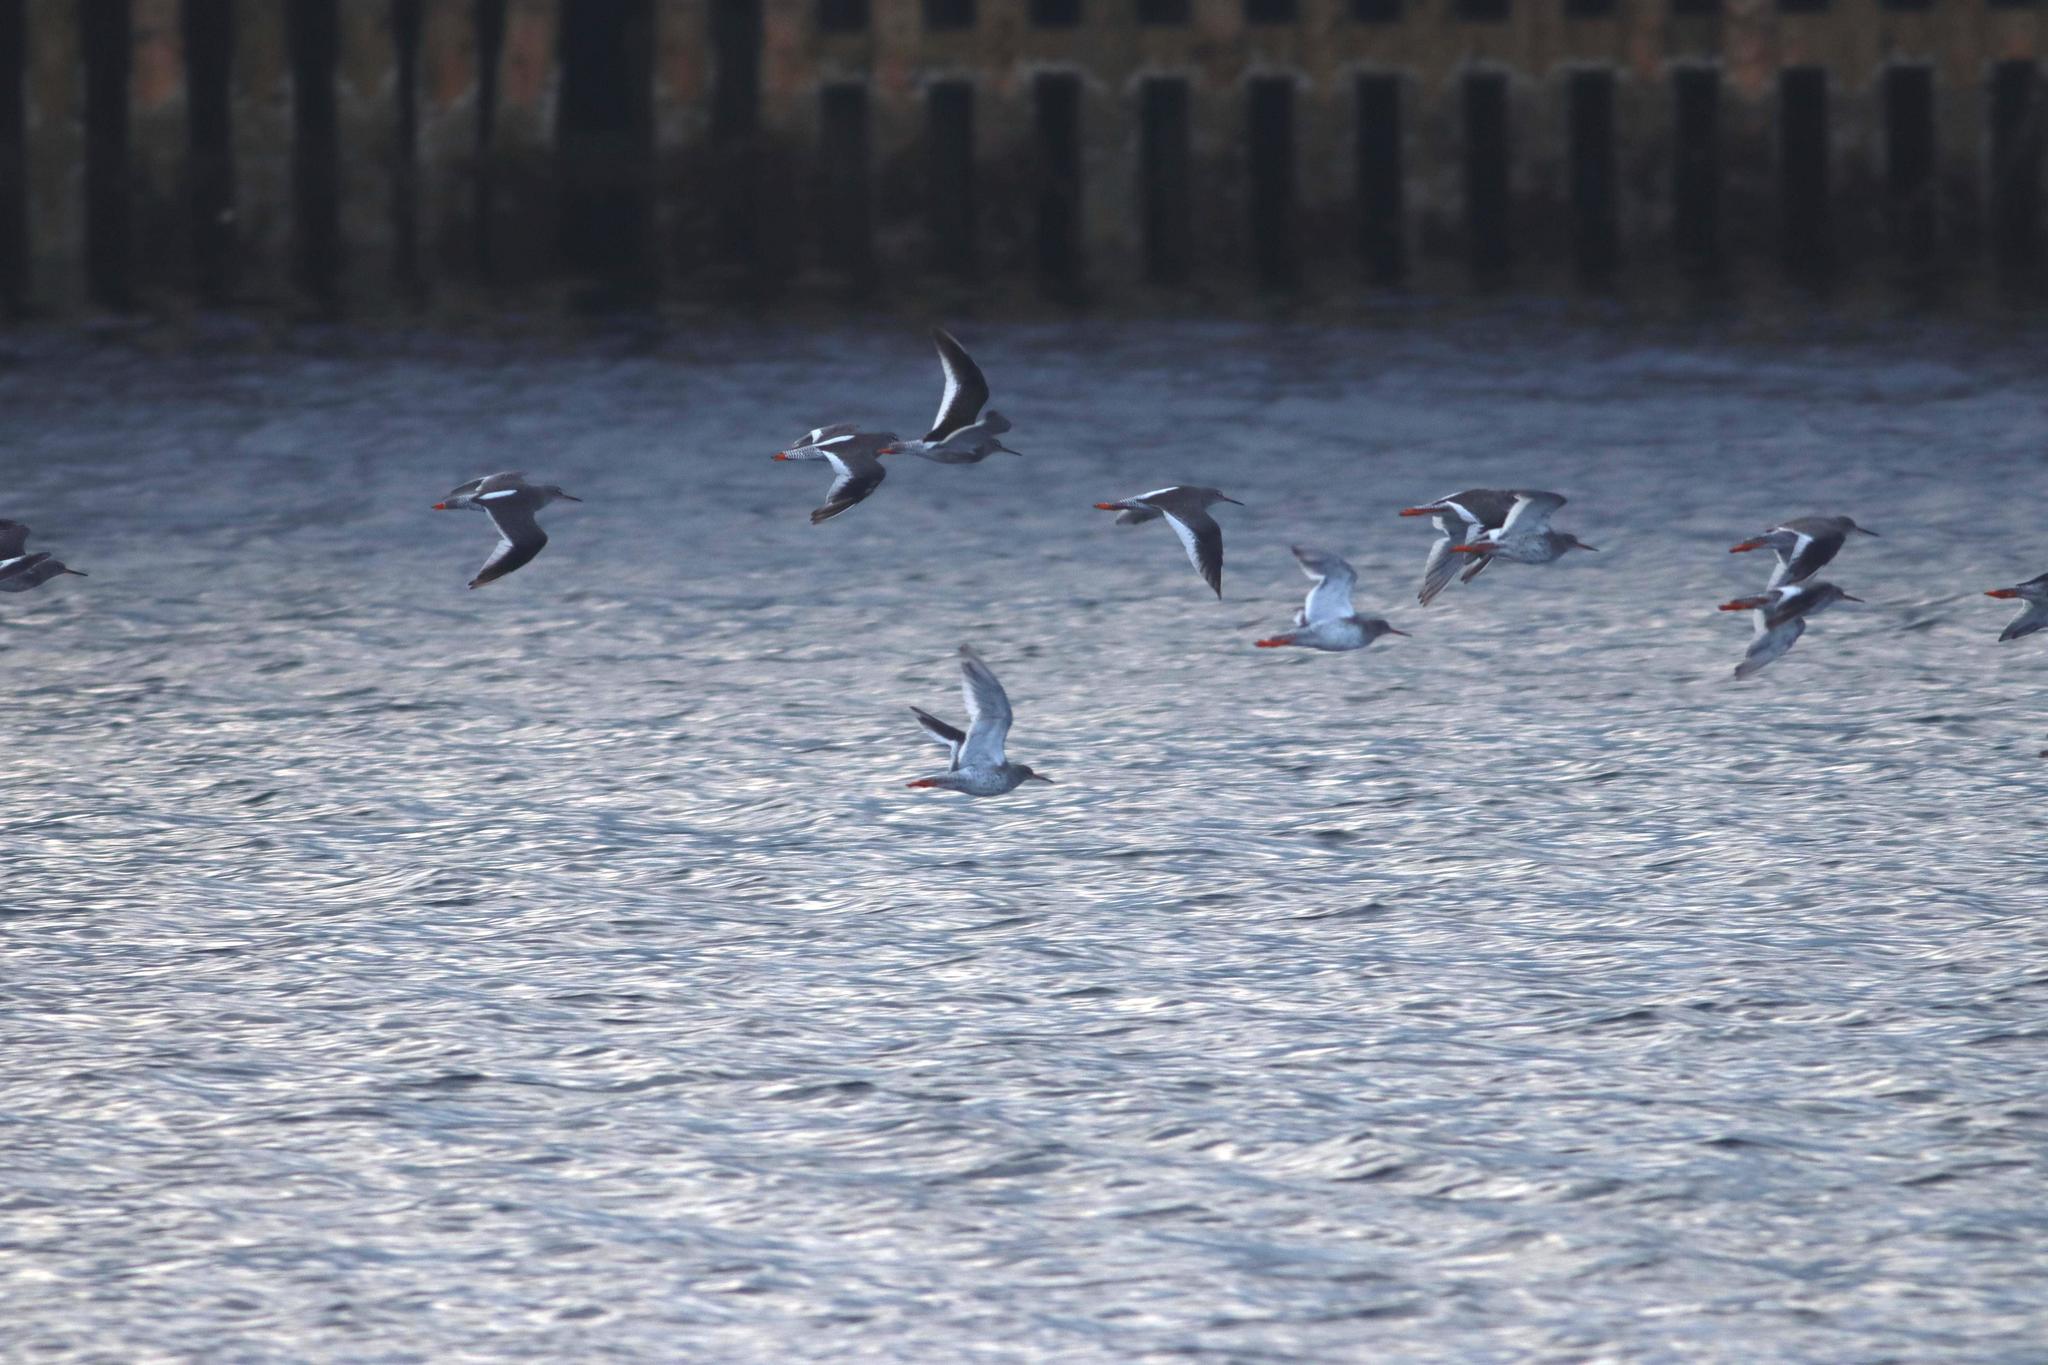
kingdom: Animalia
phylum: Chordata
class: Aves
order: Charadriiformes
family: Scolopacidae
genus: Tringa
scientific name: Tringa totanus
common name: Common redshank
